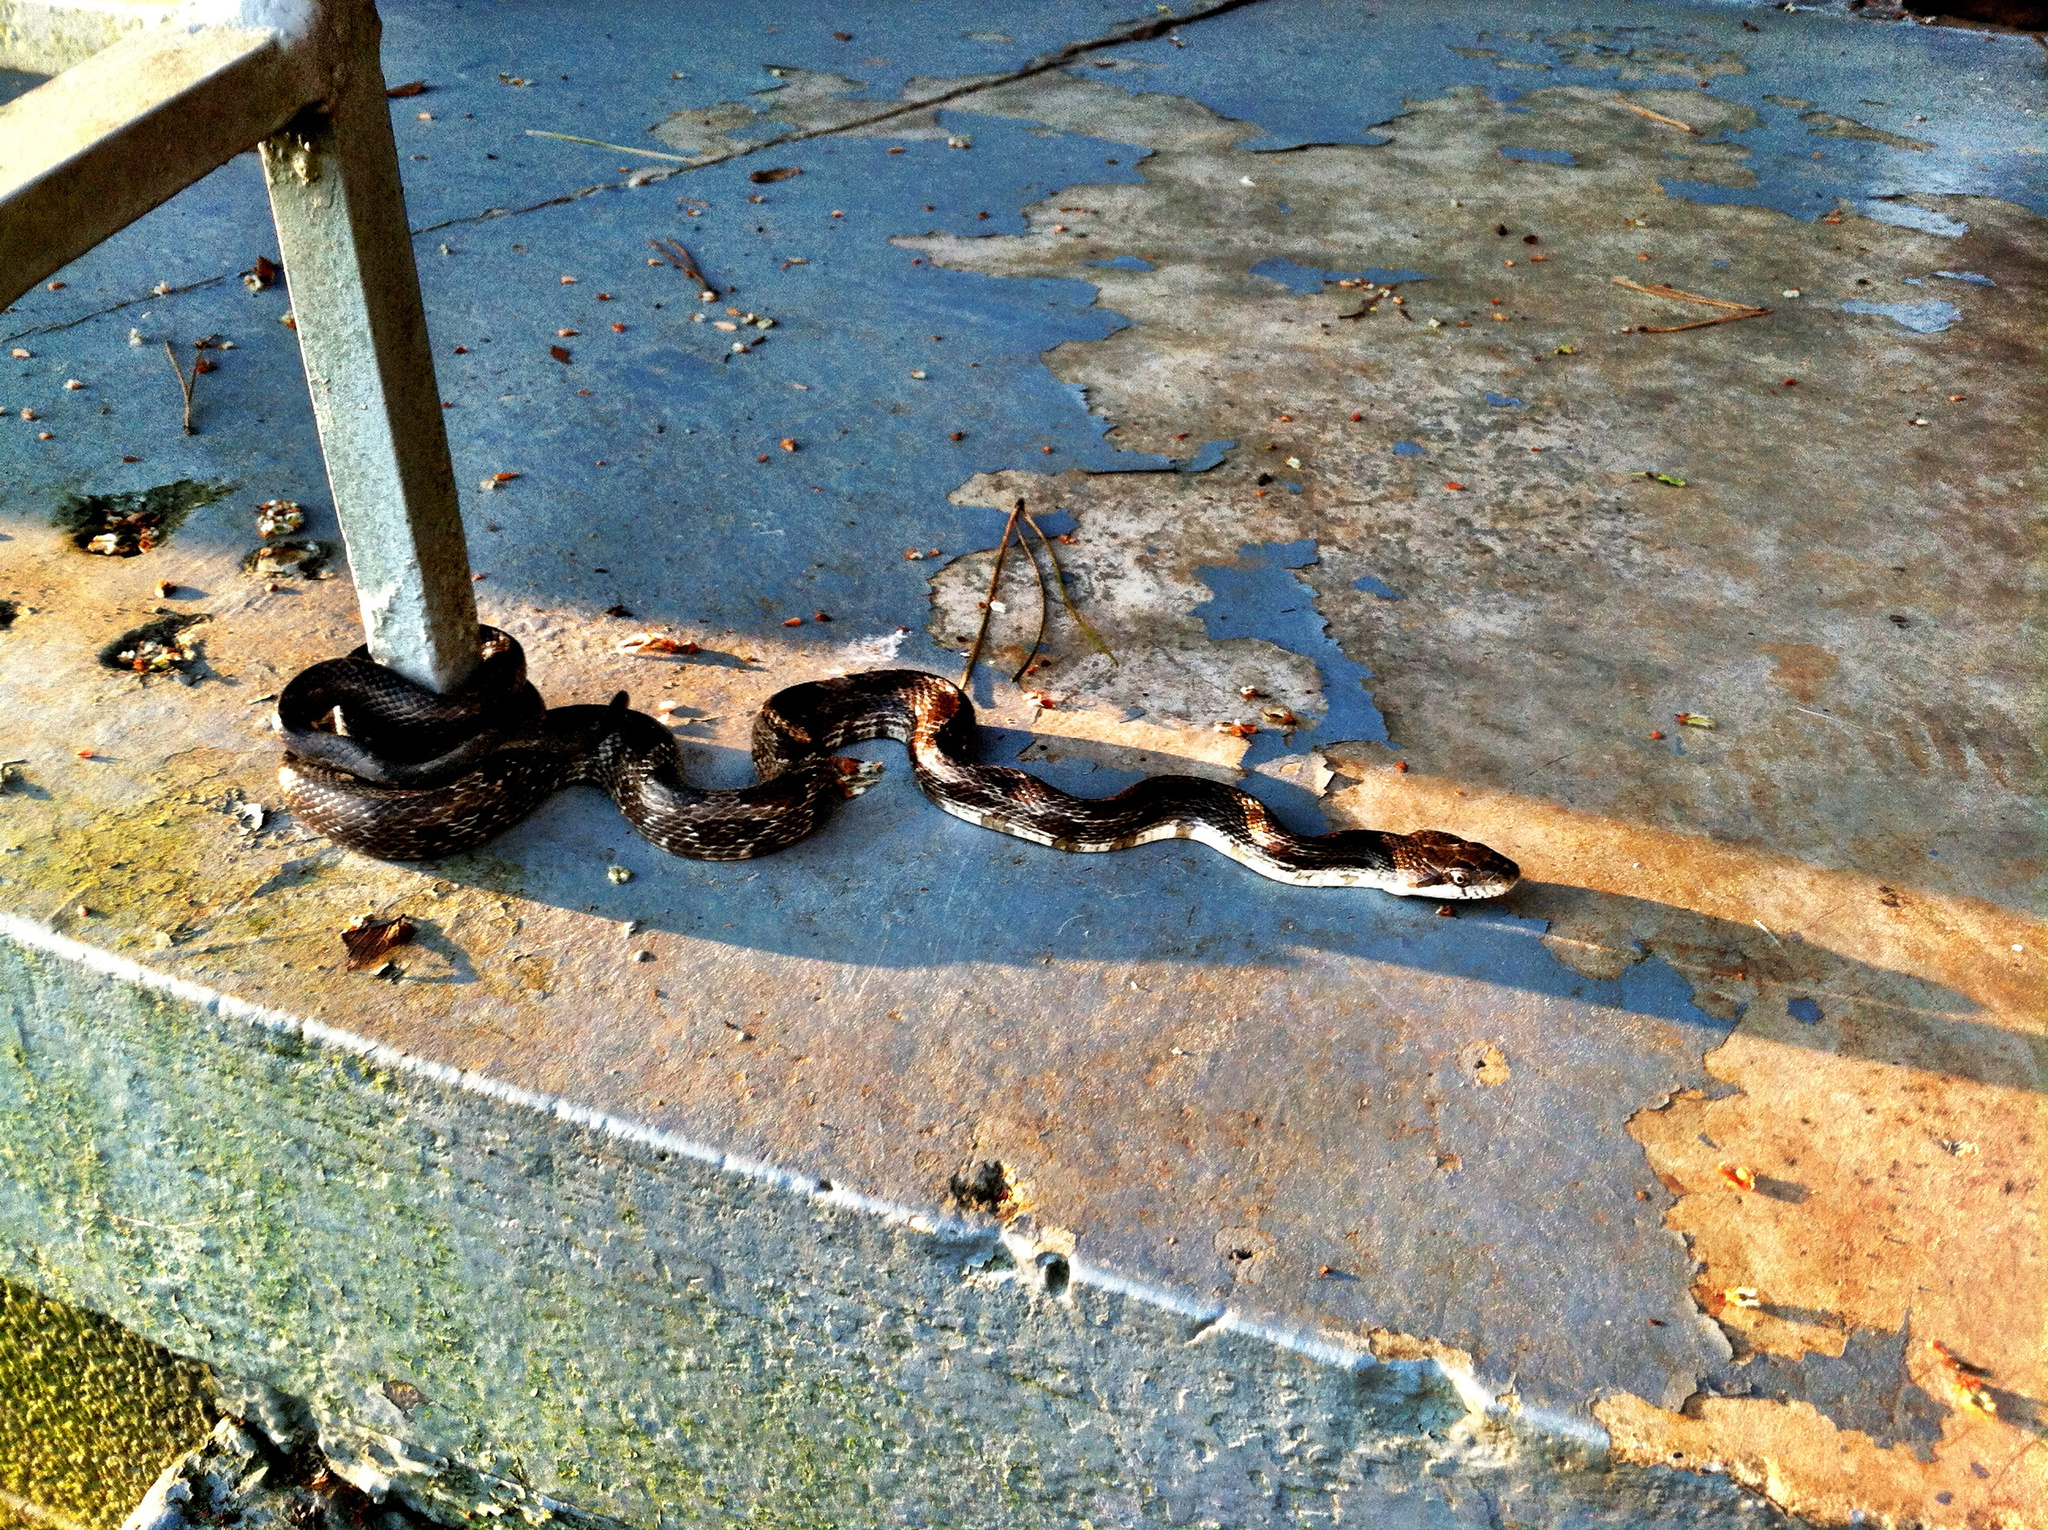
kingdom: Animalia
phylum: Chordata
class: Squamata
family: Colubridae
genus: Pantherophis
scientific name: Pantherophis spiloides
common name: Gray rat snake
